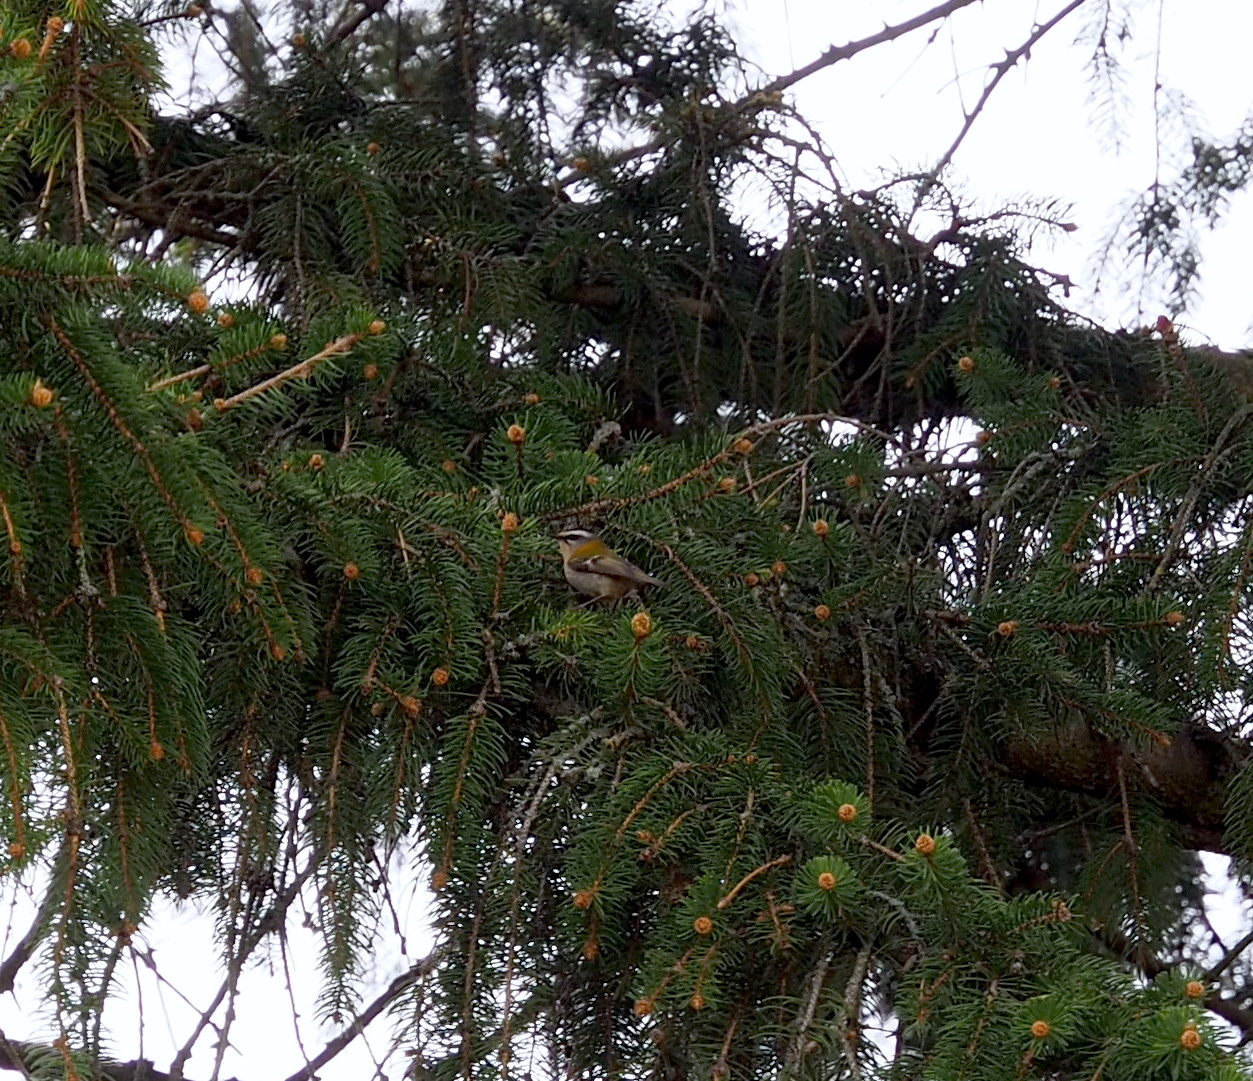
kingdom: Animalia
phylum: Chordata
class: Aves
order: Passeriformes
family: Regulidae
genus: Regulus
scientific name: Regulus ignicapilla
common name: Firecrest
